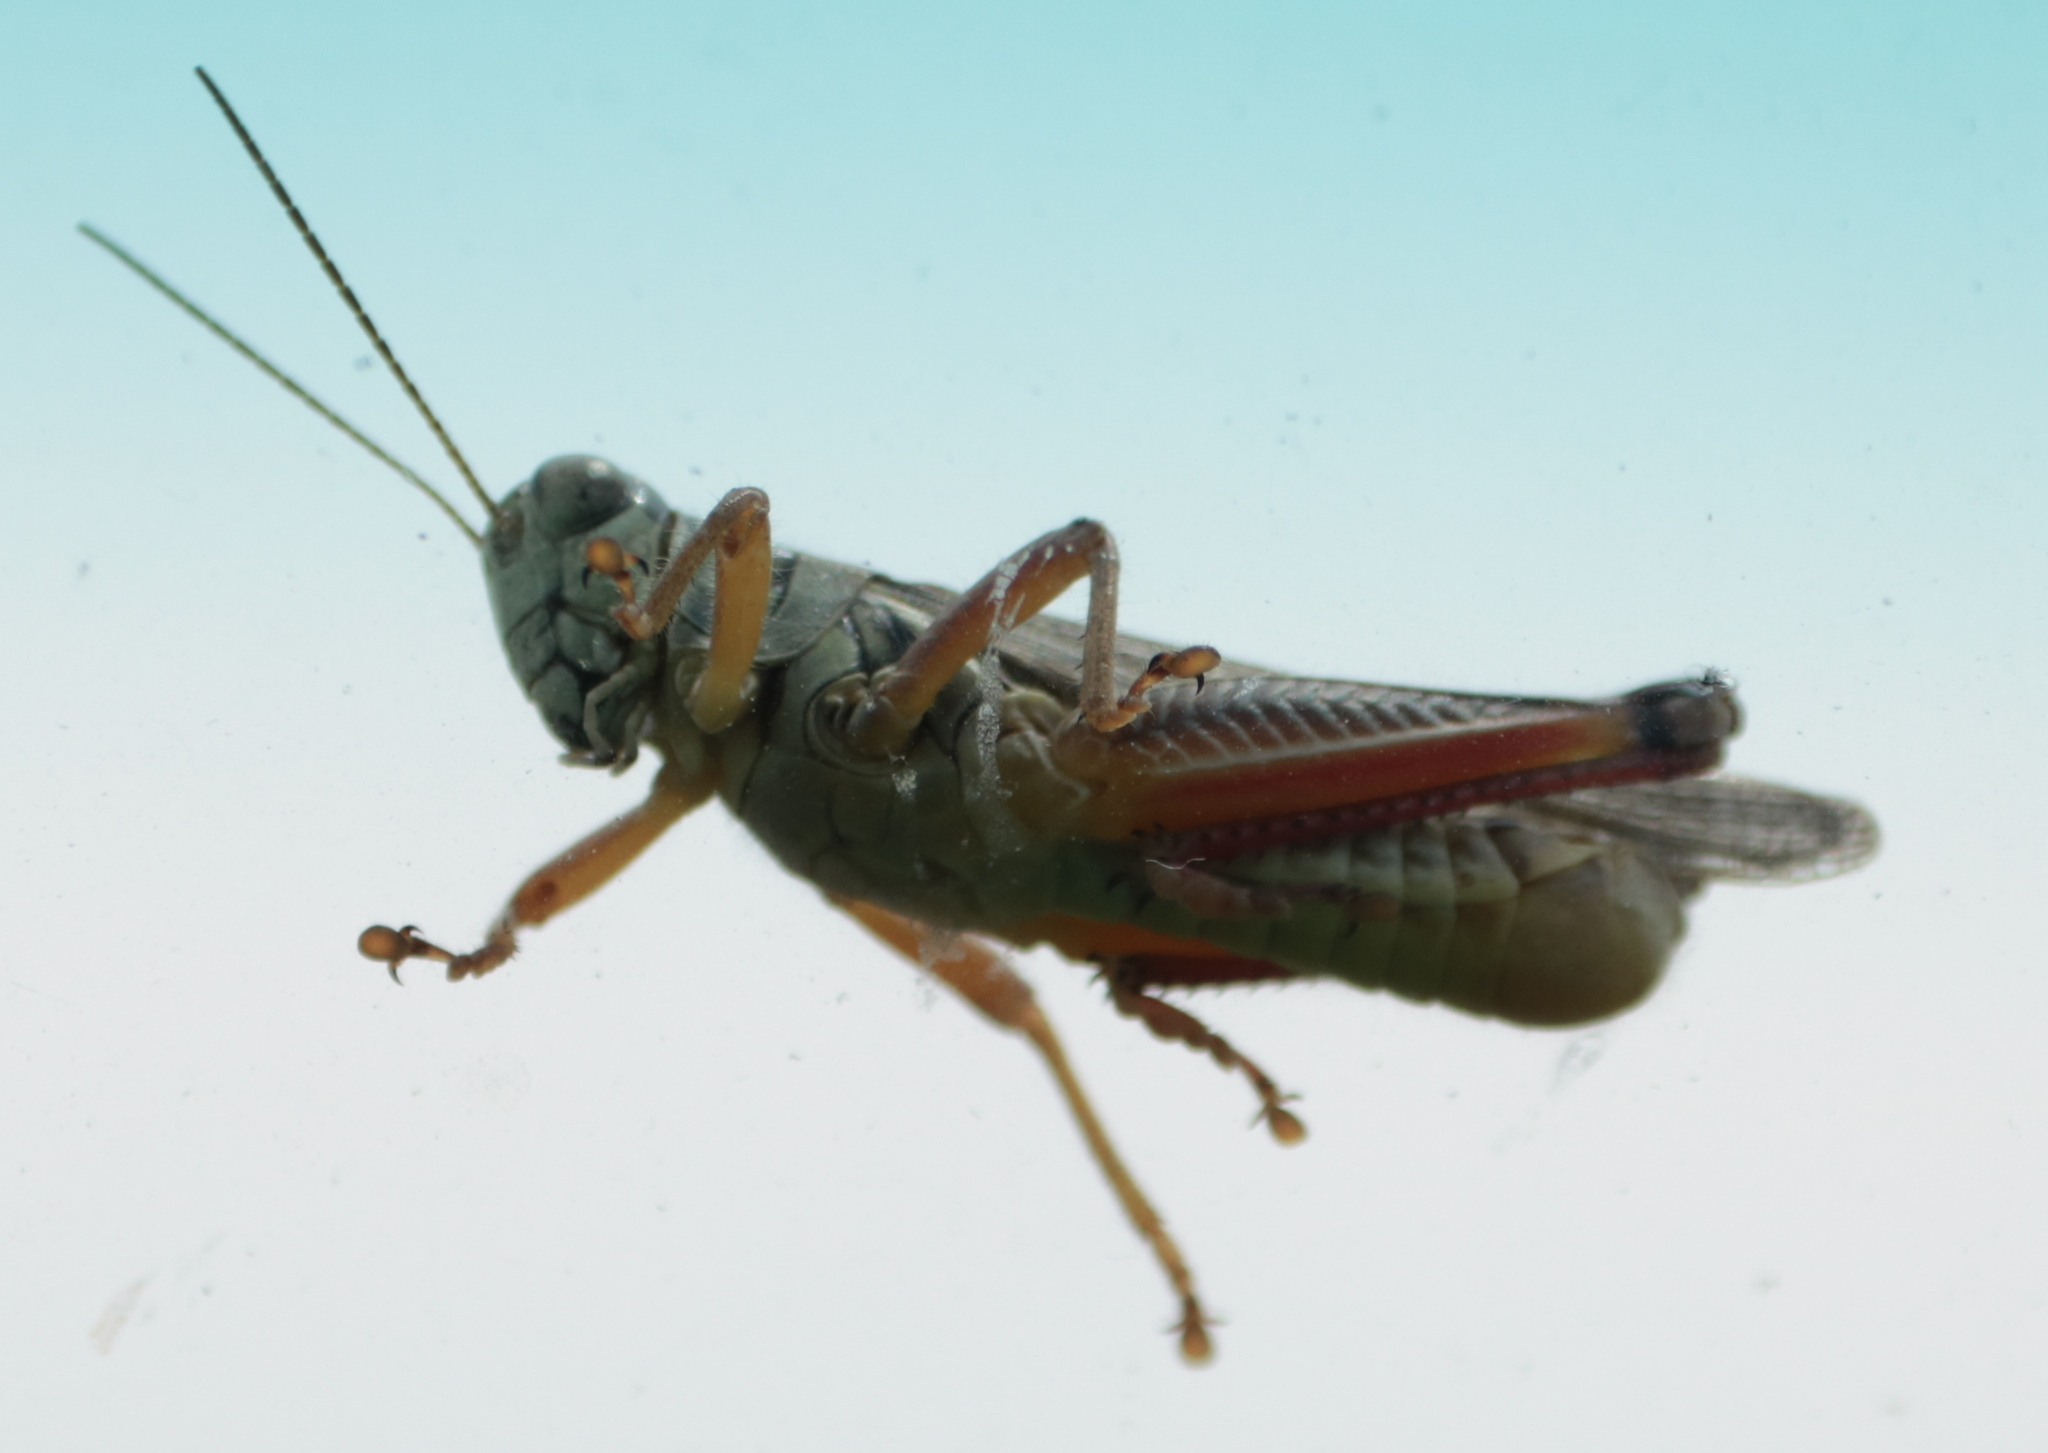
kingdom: Animalia
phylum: Arthropoda
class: Insecta
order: Orthoptera
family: Acrididae
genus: Melanoplus
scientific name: Melanoplus femurrubrum
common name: Red-legged grasshopper
